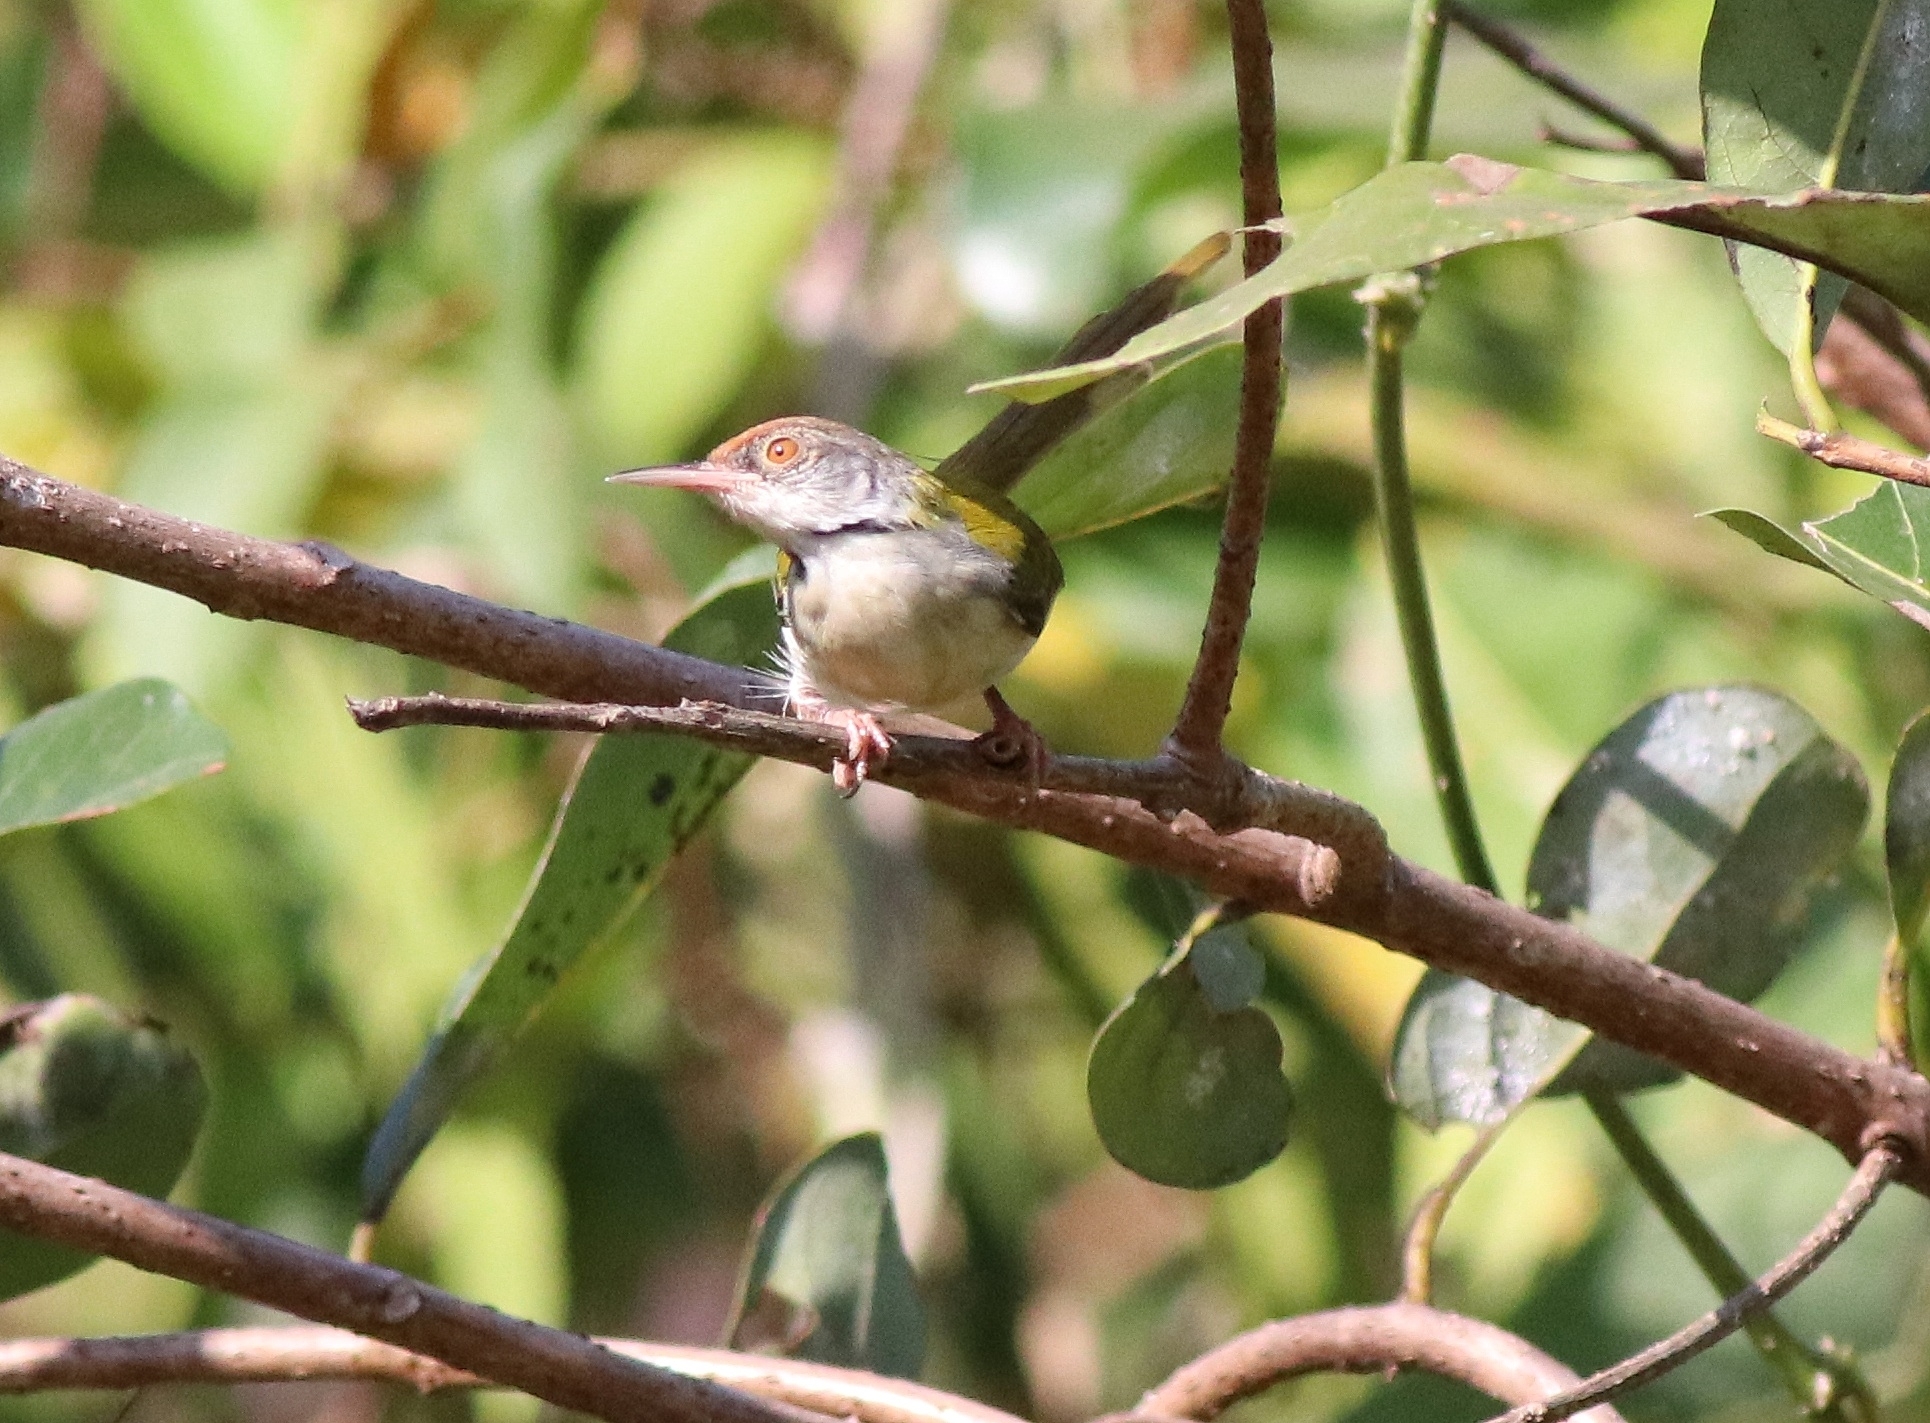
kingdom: Animalia
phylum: Chordata
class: Aves
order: Passeriformes
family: Cisticolidae
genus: Orthotomus
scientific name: Orthotomus sutorius
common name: Common tailorbird
